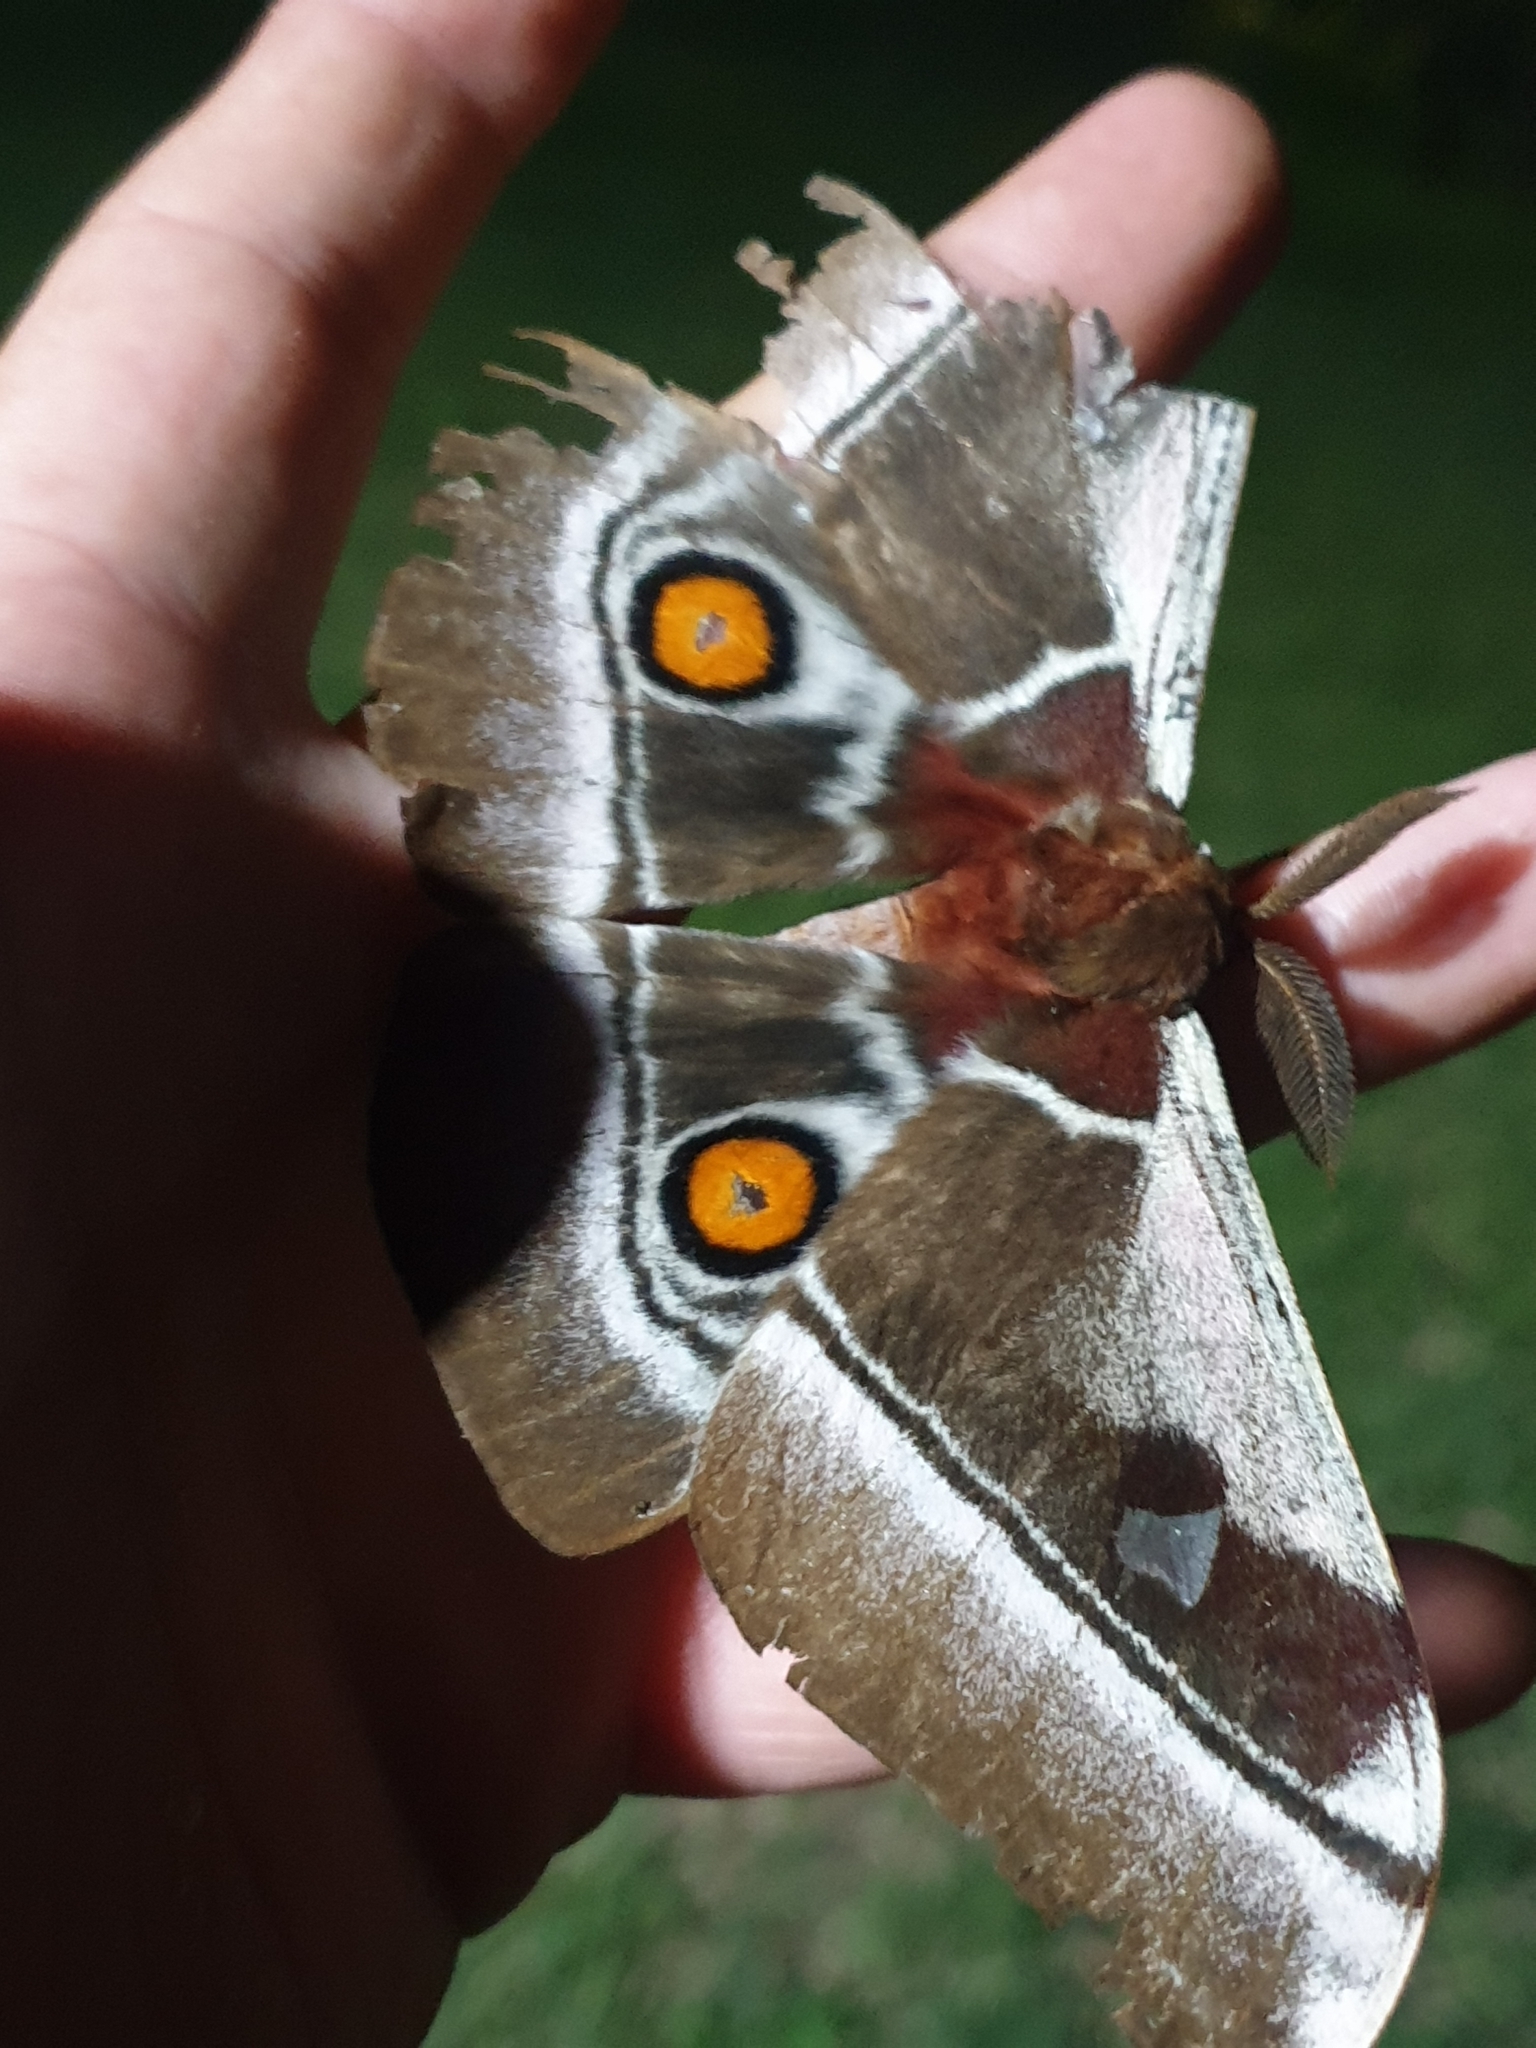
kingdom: Animalia
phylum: Arthropoda
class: Insecta
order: Lepidoptera
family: Saturniidae
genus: Bunaea
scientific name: Bunaea alcinoe
